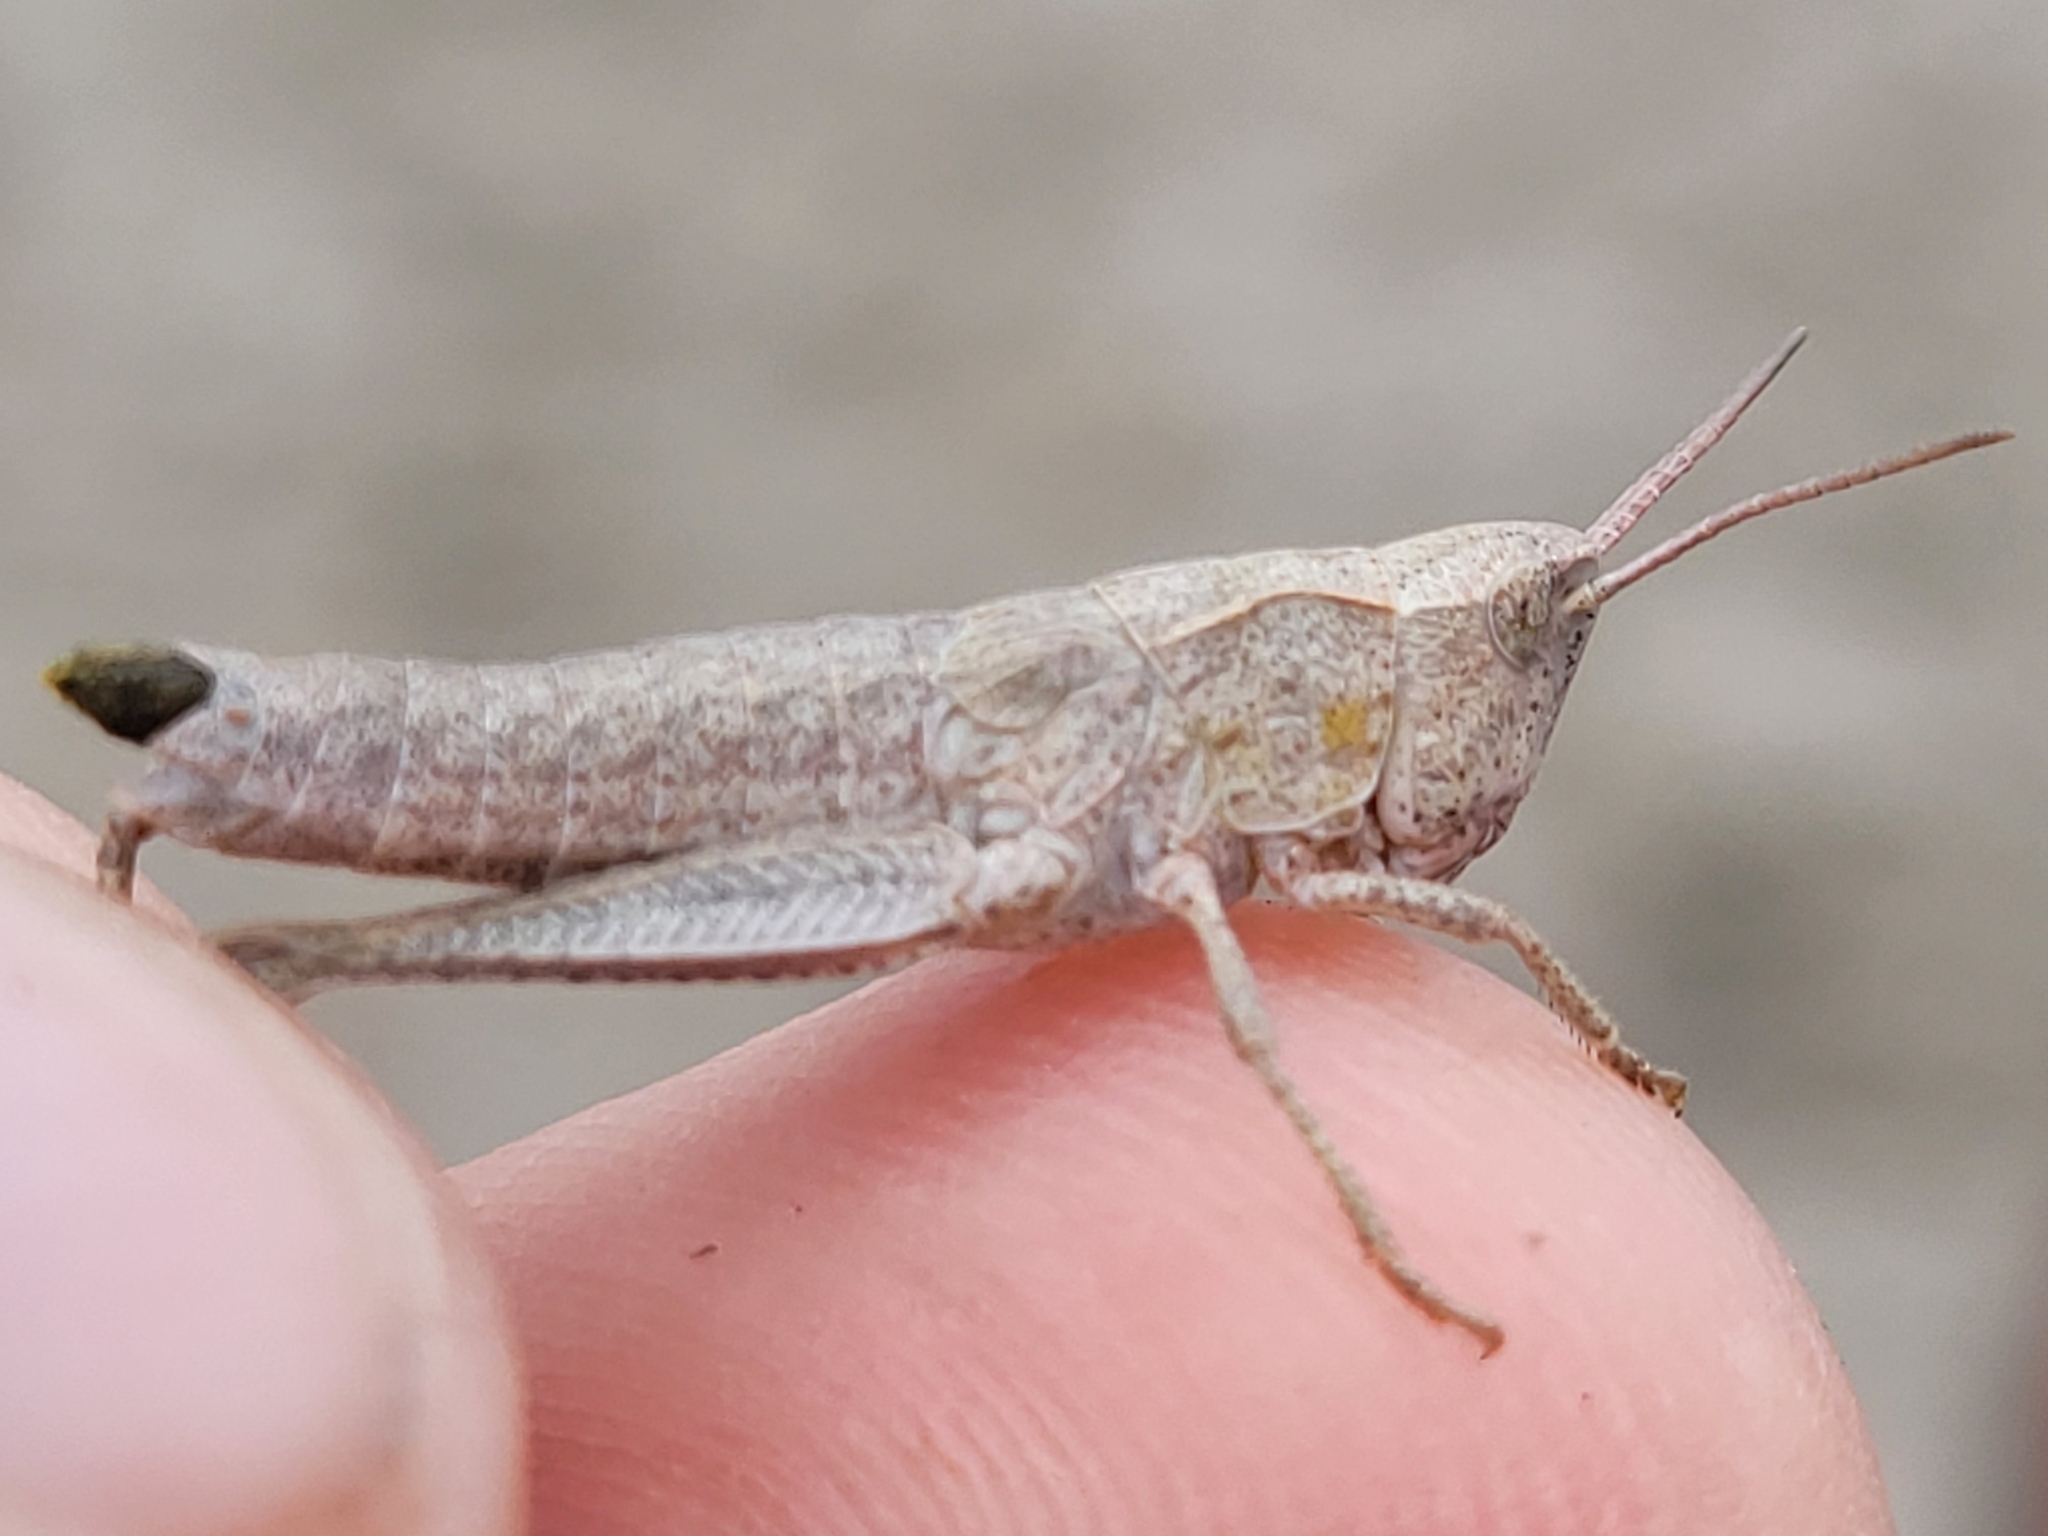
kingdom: Animalia
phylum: Arthropoda
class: Insecta
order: Orthoptera
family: Acrididae
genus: Chloealtis
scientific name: Chloealtis abdominalis
